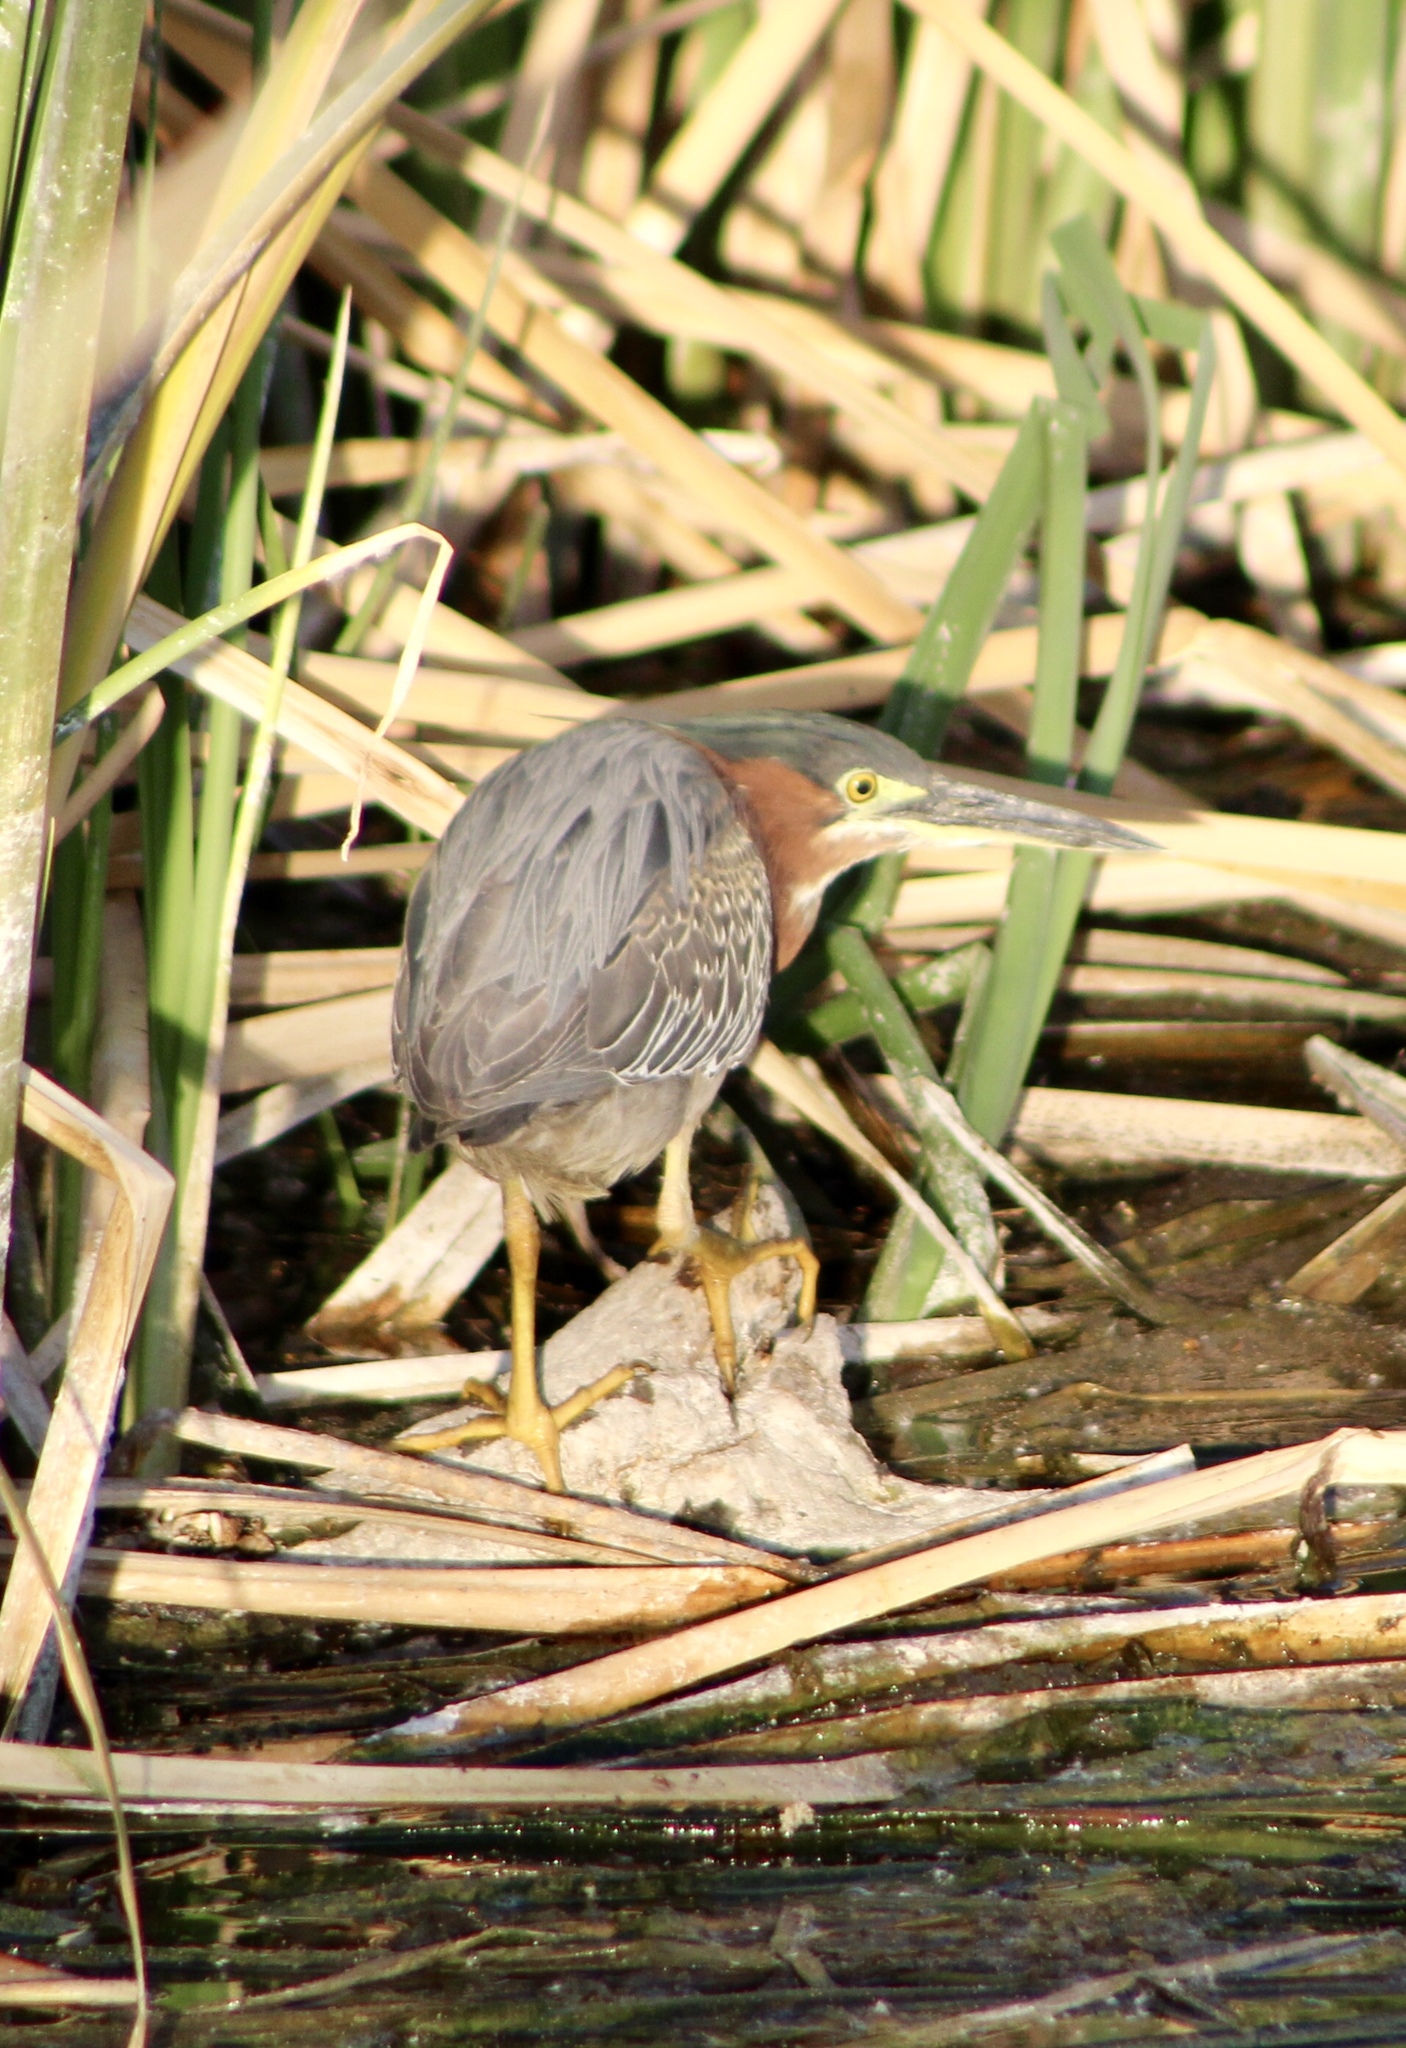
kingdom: Animalia
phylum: Chordata
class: Aves
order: Pelecaniformes
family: Ardeidae
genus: Butorides
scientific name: Butorides virescens
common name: Green heron
